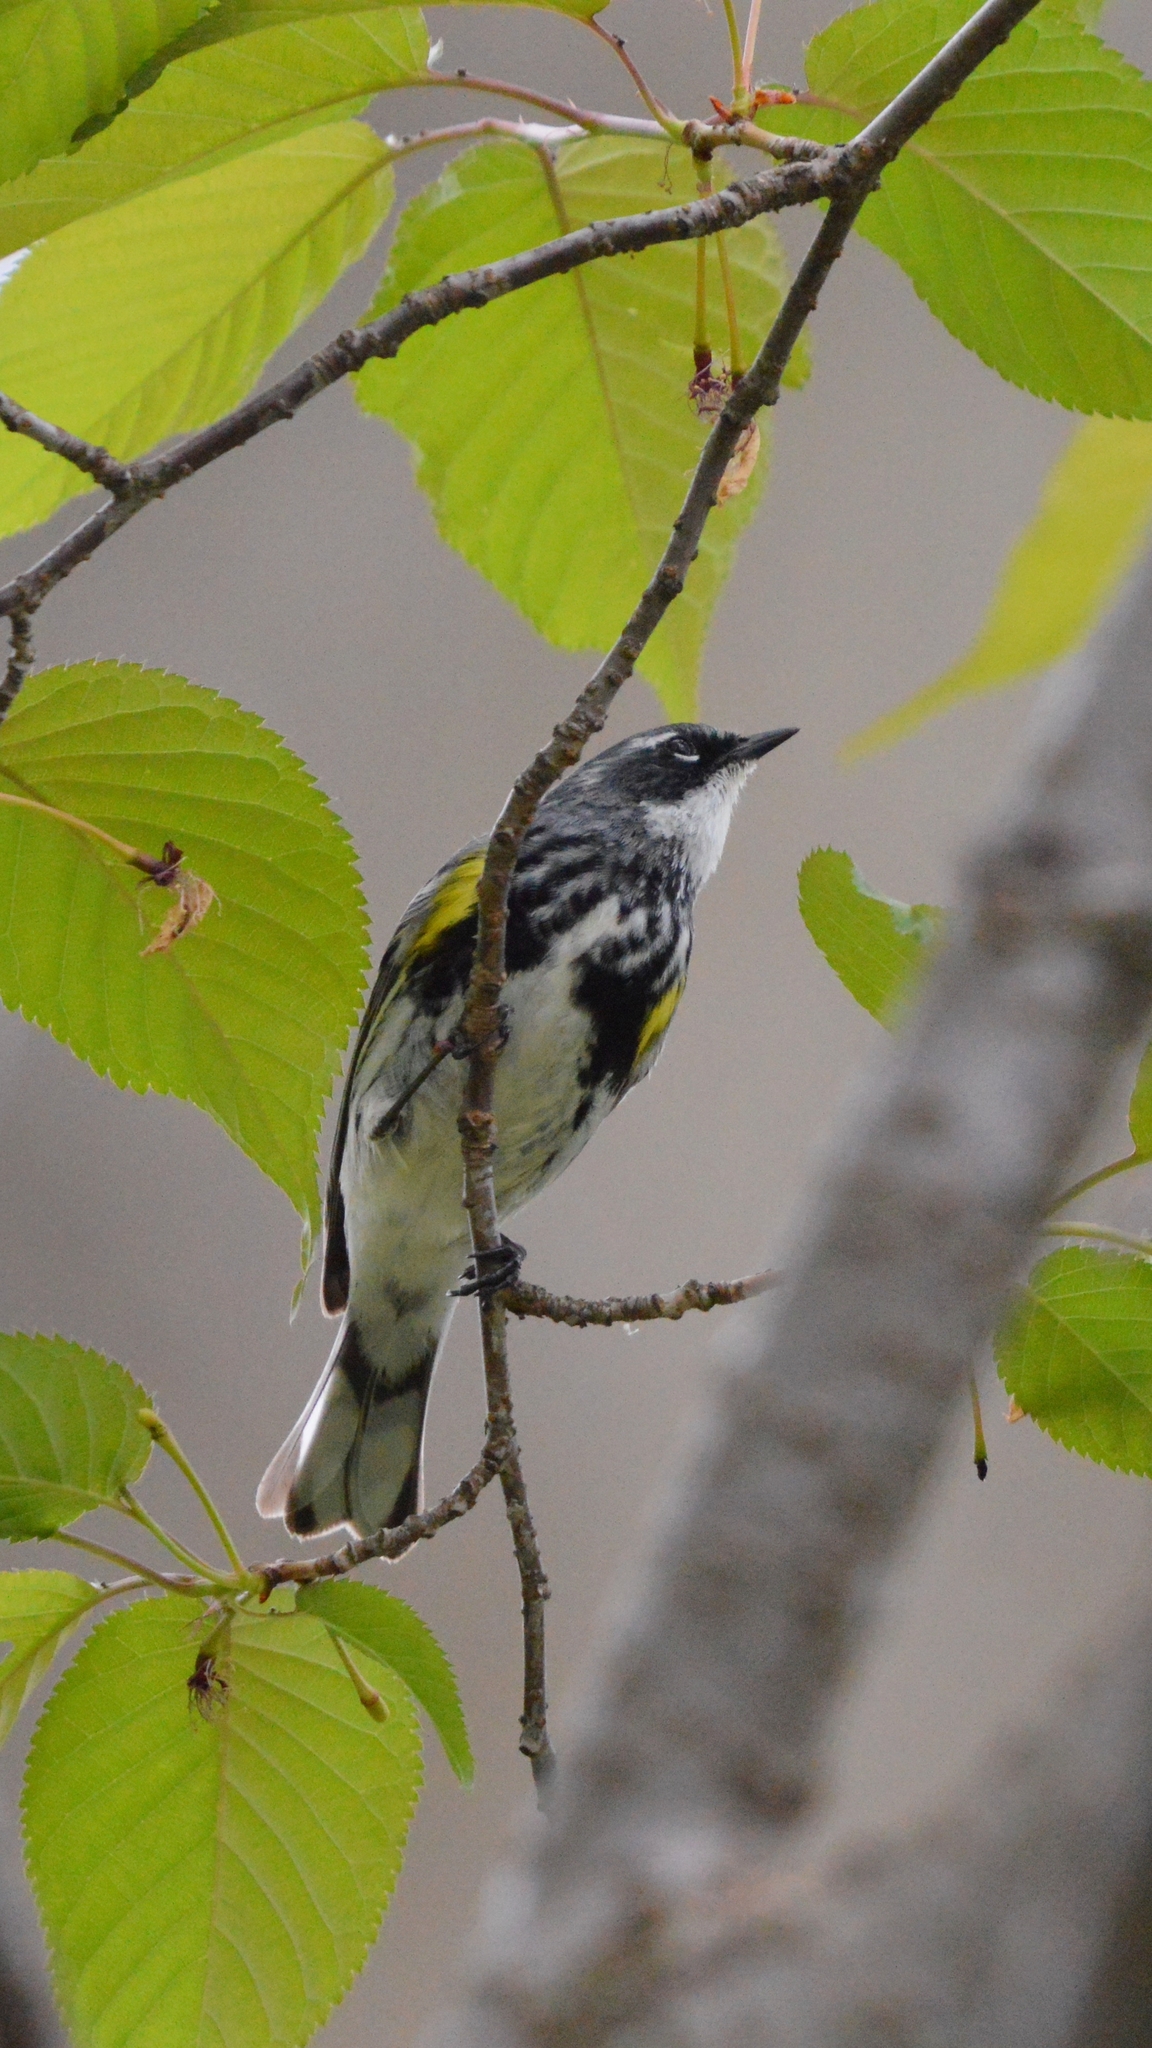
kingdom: Animalia
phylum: Chordata
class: Aves
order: Passeriformes
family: Parulidae
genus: Setophaga
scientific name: Setophaga coronata
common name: Myrtle warbler
